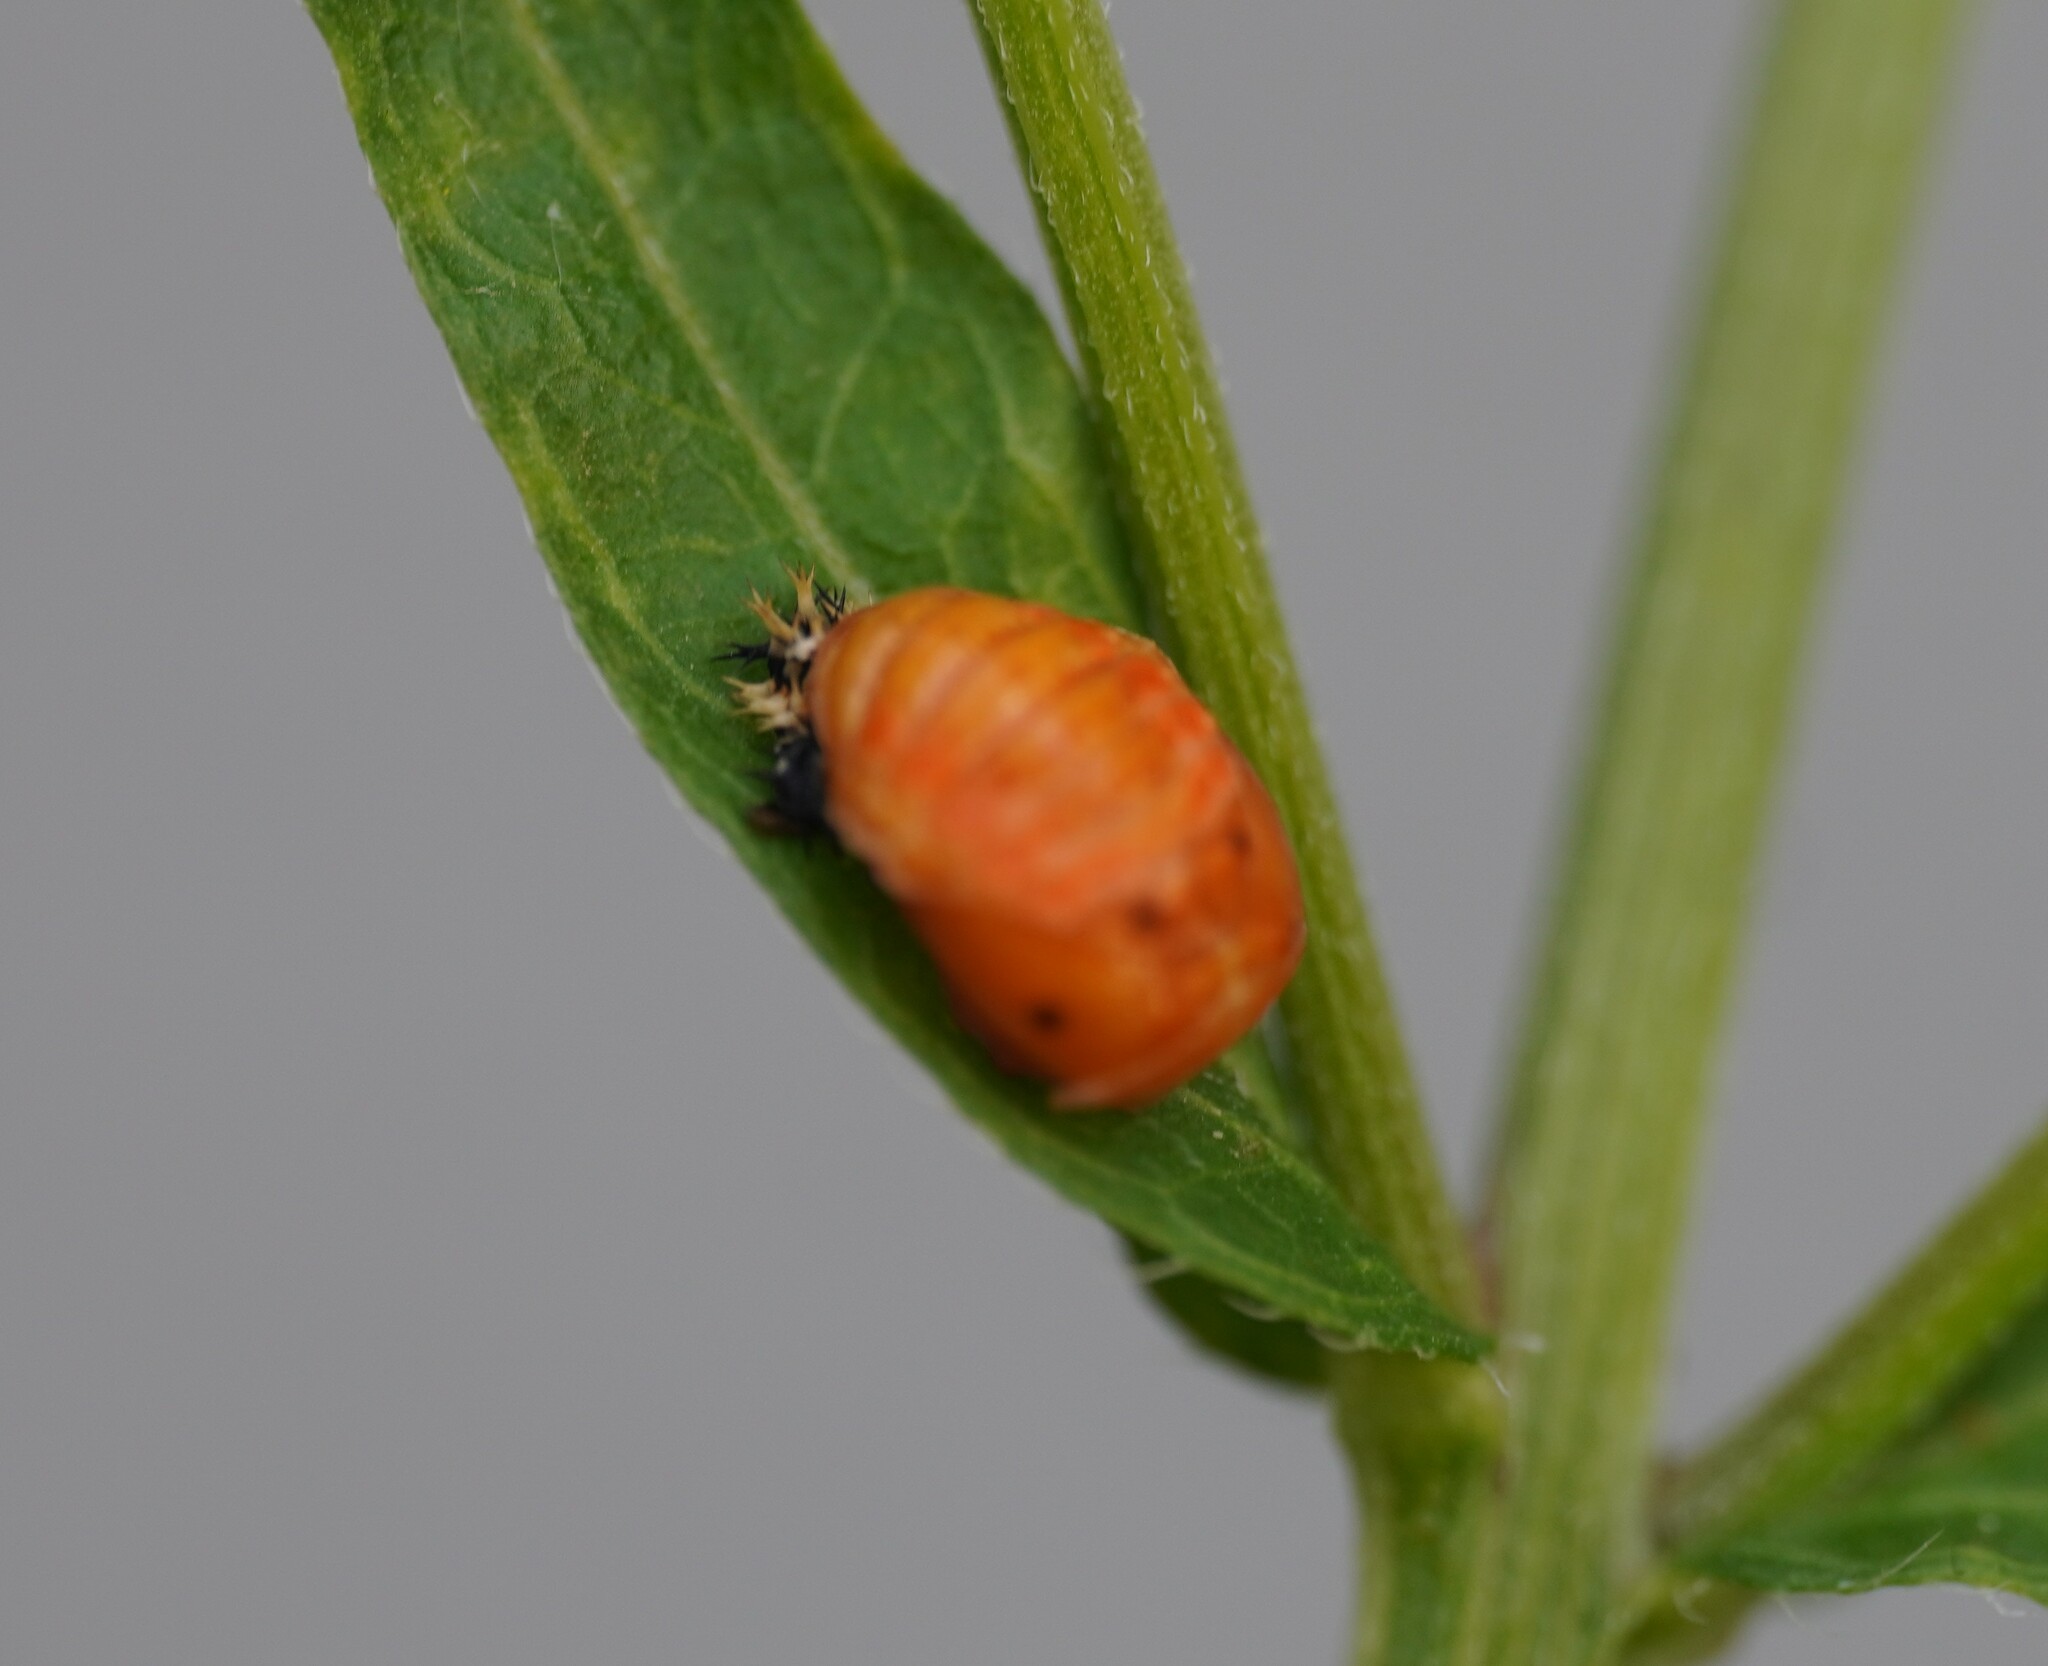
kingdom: Animalia
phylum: Arthropoda
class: Insecta
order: Coleoptera
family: Coccinellidae
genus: Harmonia
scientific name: Harmonia axyridis
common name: Harlequin ladybird
